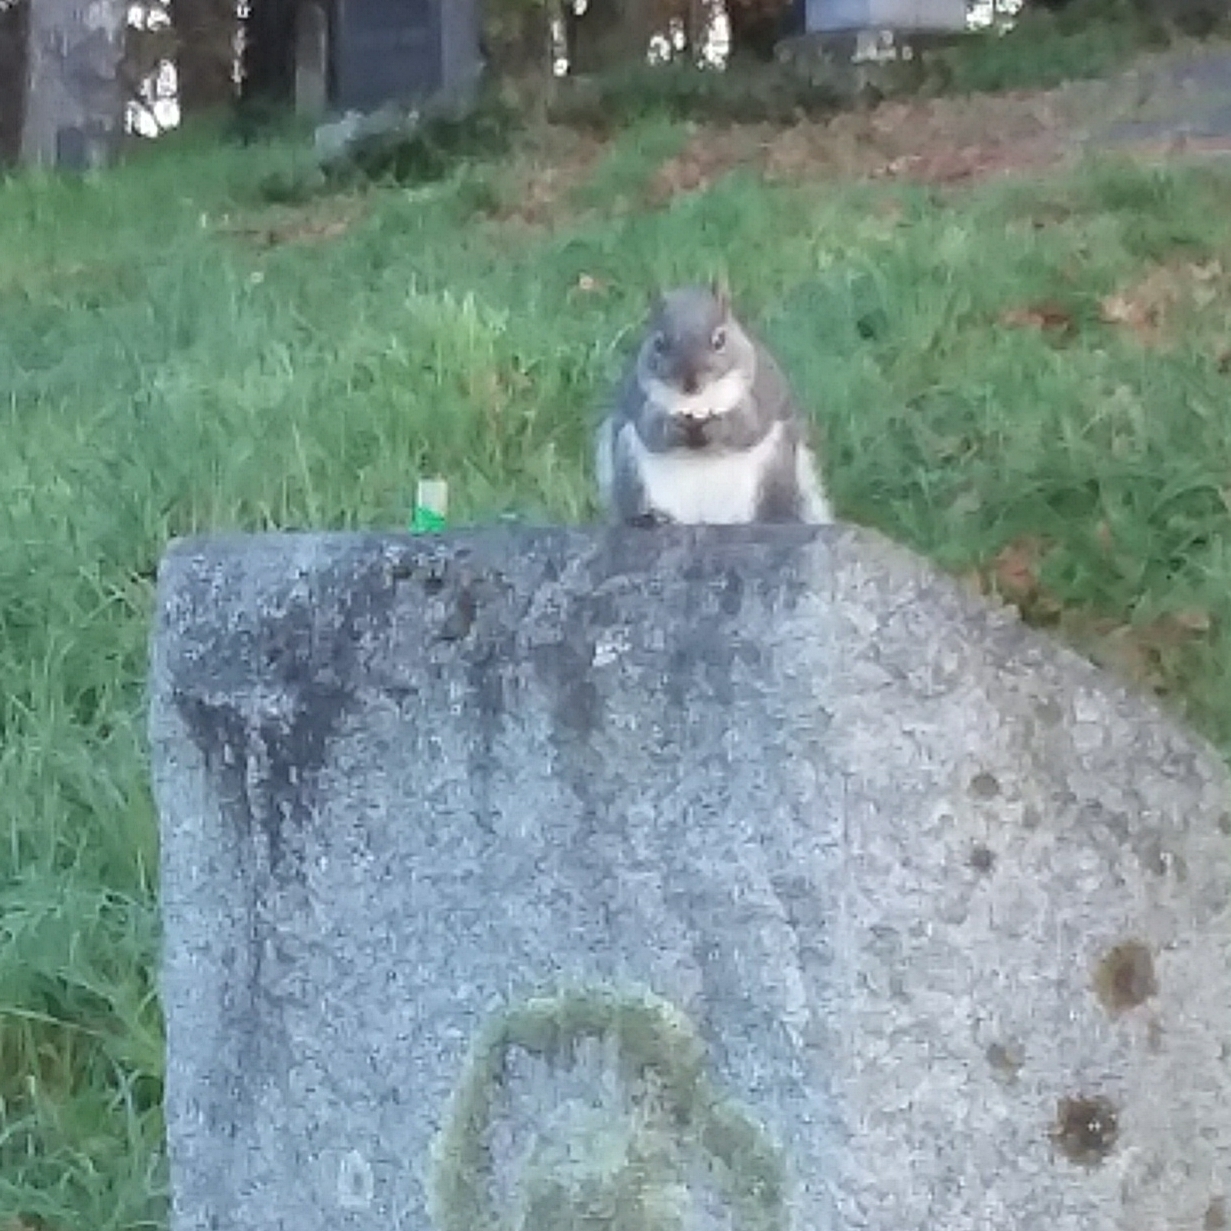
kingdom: Animalia
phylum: Chordata
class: Mammalia
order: Rodentia
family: Sciuridae
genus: Sciurus
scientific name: Sciurus griseus
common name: Western gray squirrel
